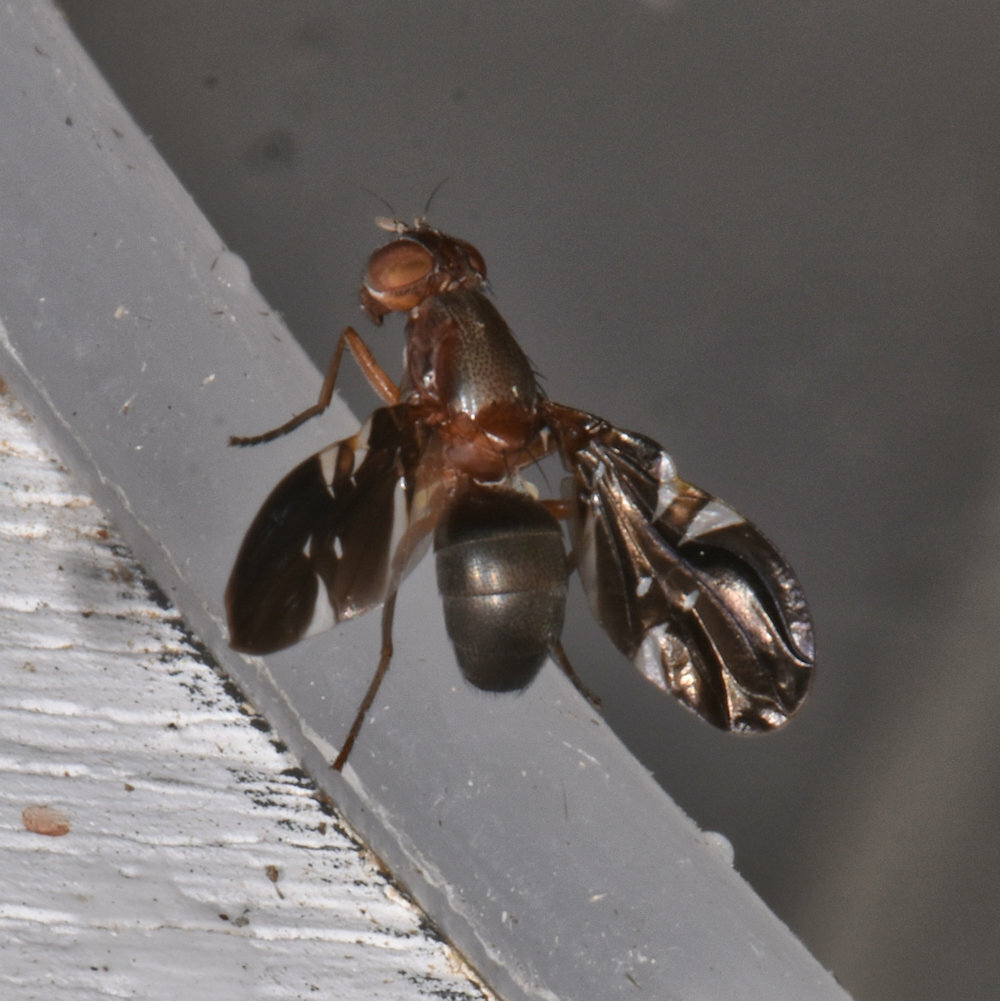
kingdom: Animalia
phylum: Arthropoda
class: Insecta
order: Diptera
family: Ulidiidae
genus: Delphinia
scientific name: Delphinia picta
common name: Common picture-winged fly
